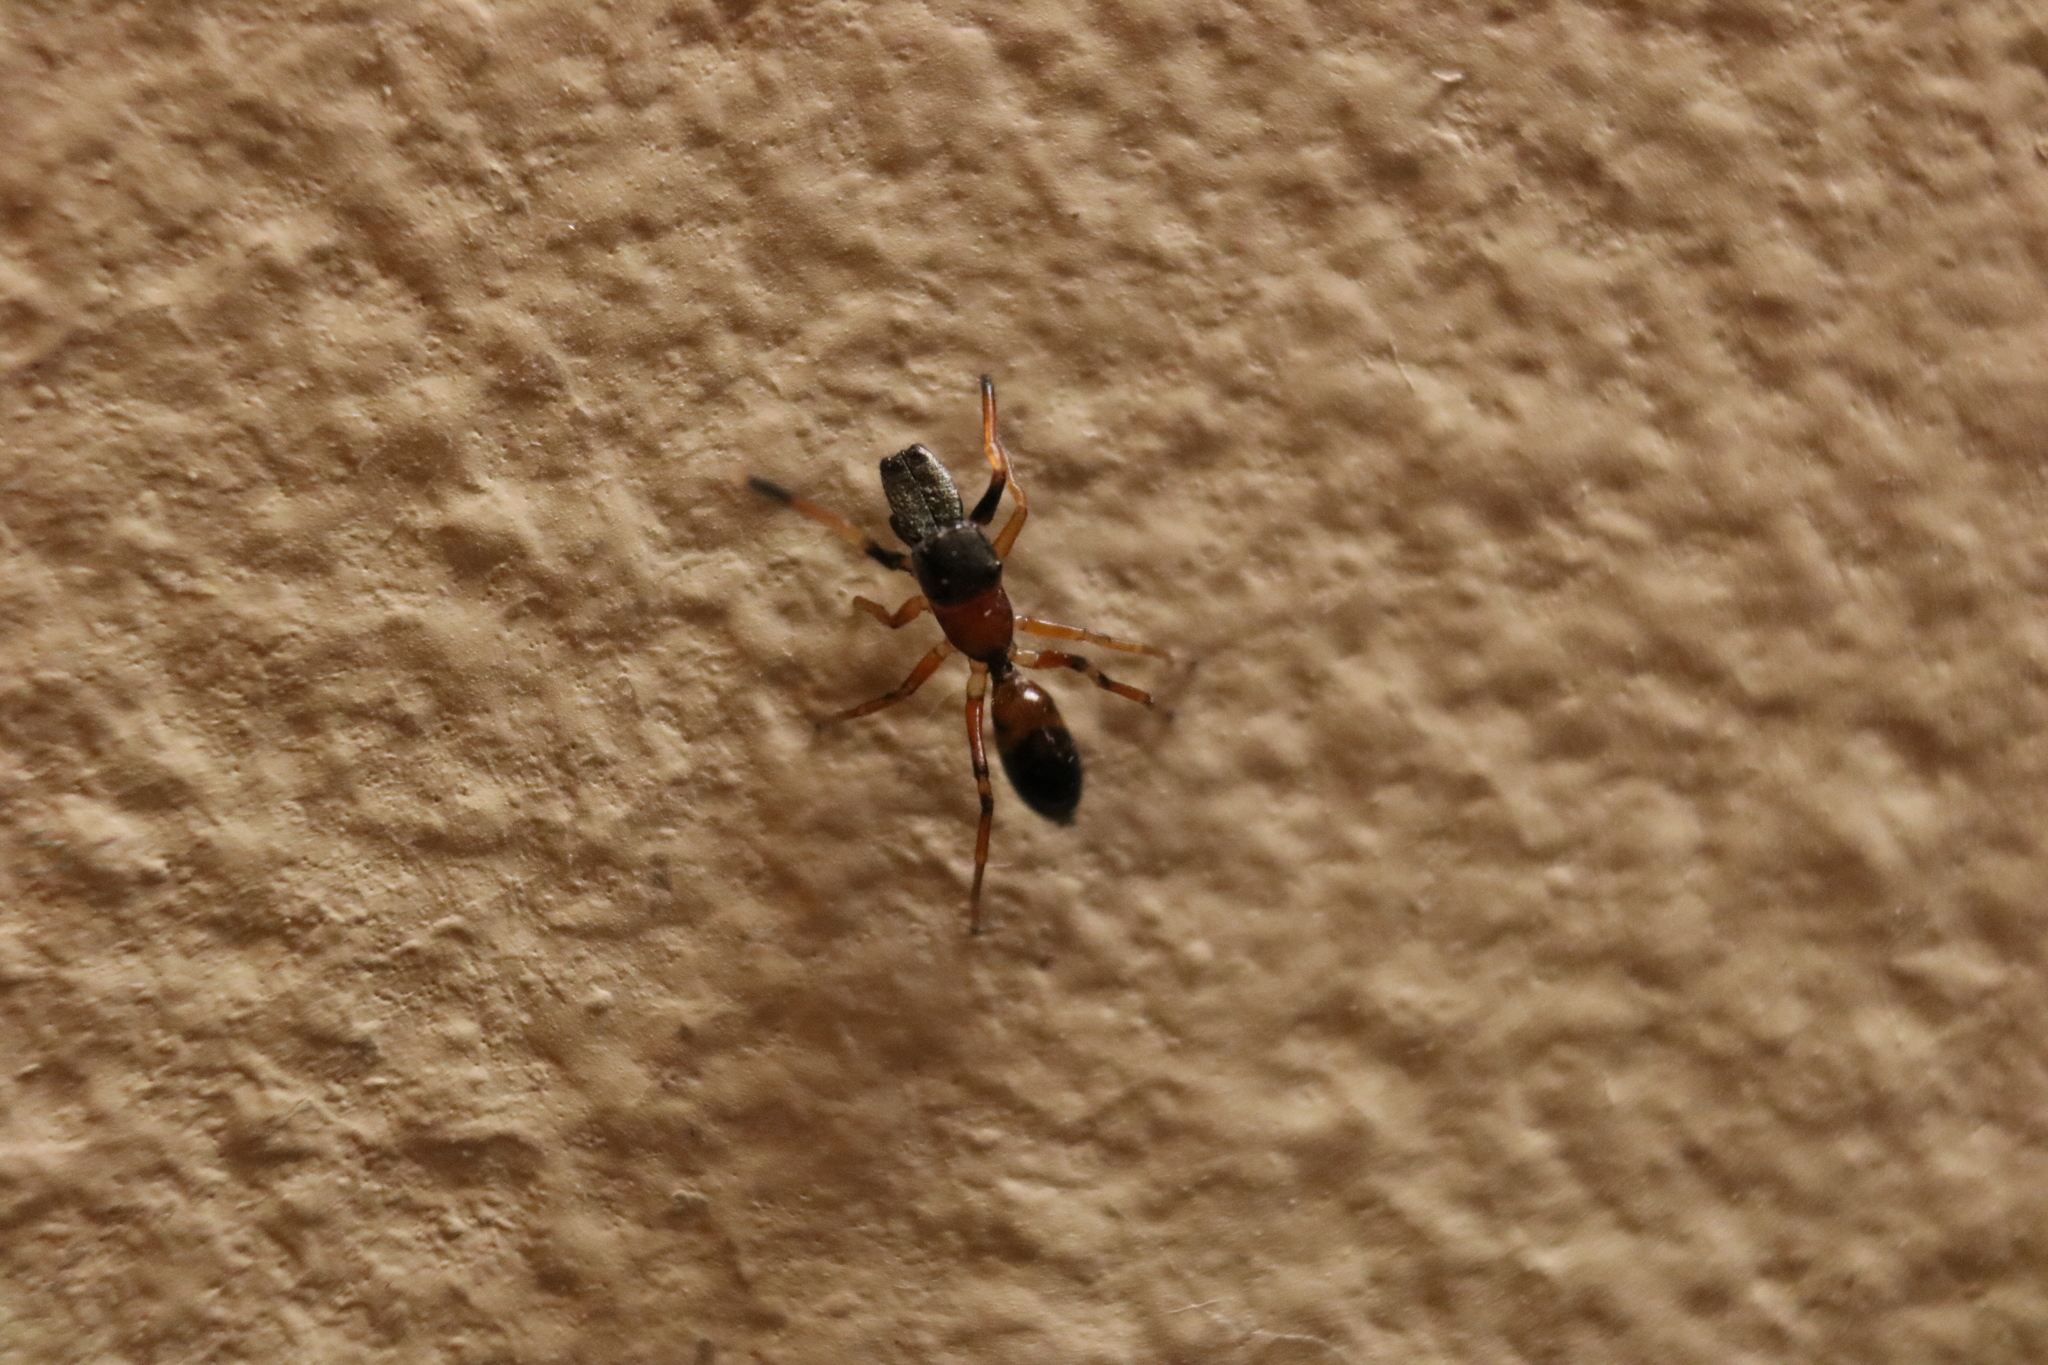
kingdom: Animalia
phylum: Arthropoda
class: Arachnida
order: Araneae
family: Salticidae
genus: Myrmarachne
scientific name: Myrmarachne formicaria
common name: Ant mimic jumping spider
